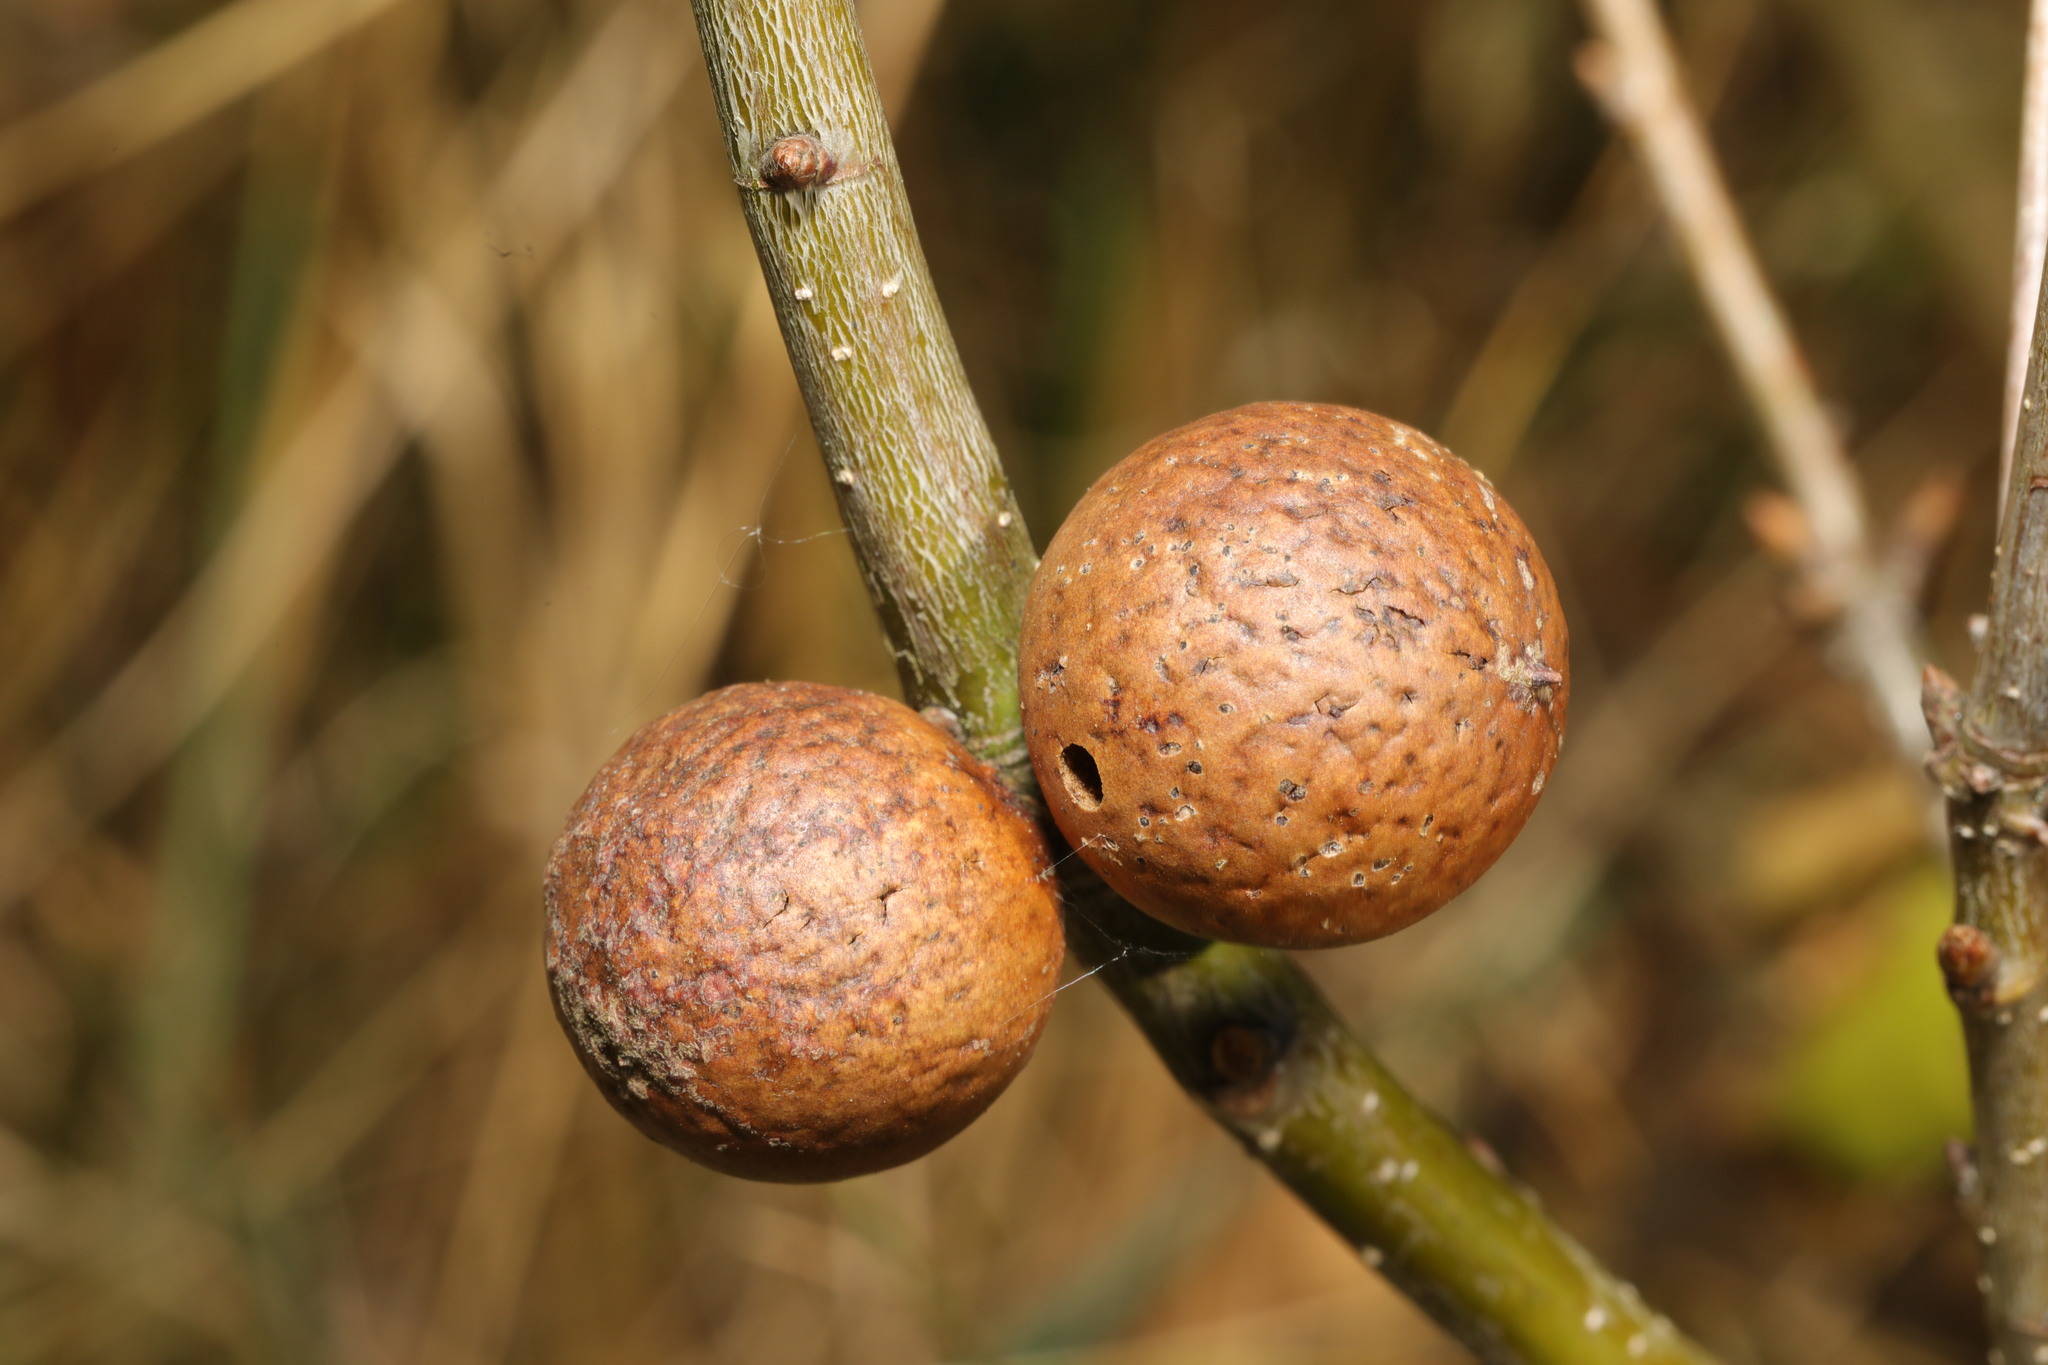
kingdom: Animalia
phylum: Arthropoda
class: Insecta
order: Hymenoptera
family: Cynipidae
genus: Andricus
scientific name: Andricus kollari
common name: Marble gall
